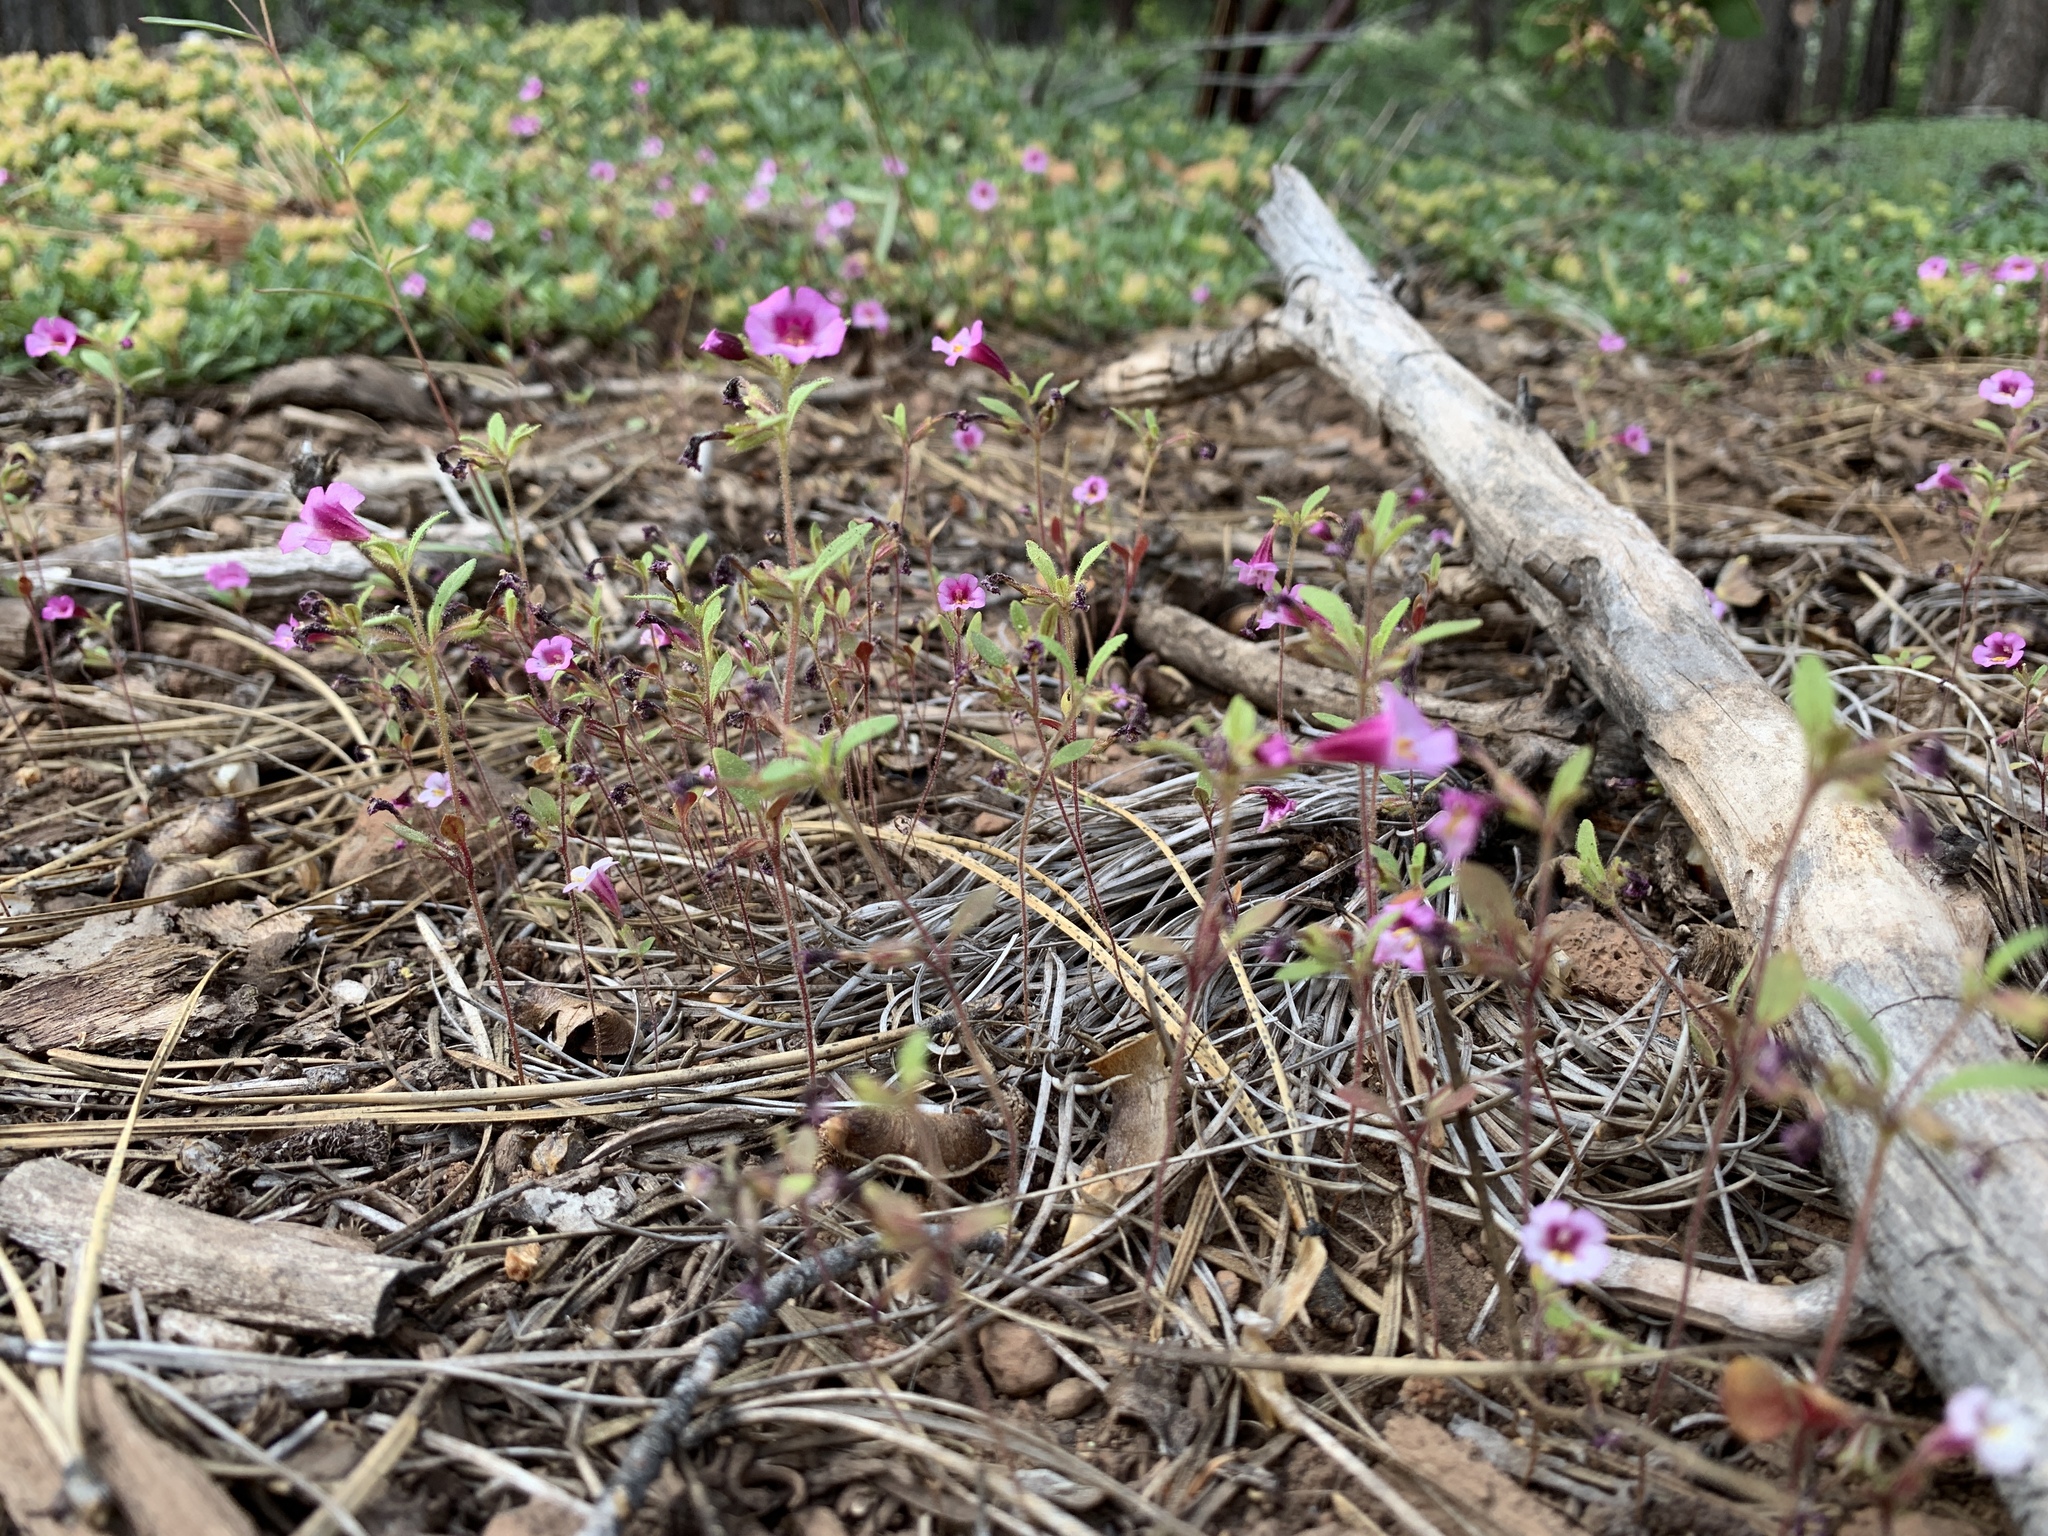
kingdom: Plantae
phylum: Tracheophyta
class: Magnoliopsida
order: Lamiales
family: Phrymaceae
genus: Diplacus
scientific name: Diplacus torreyi
